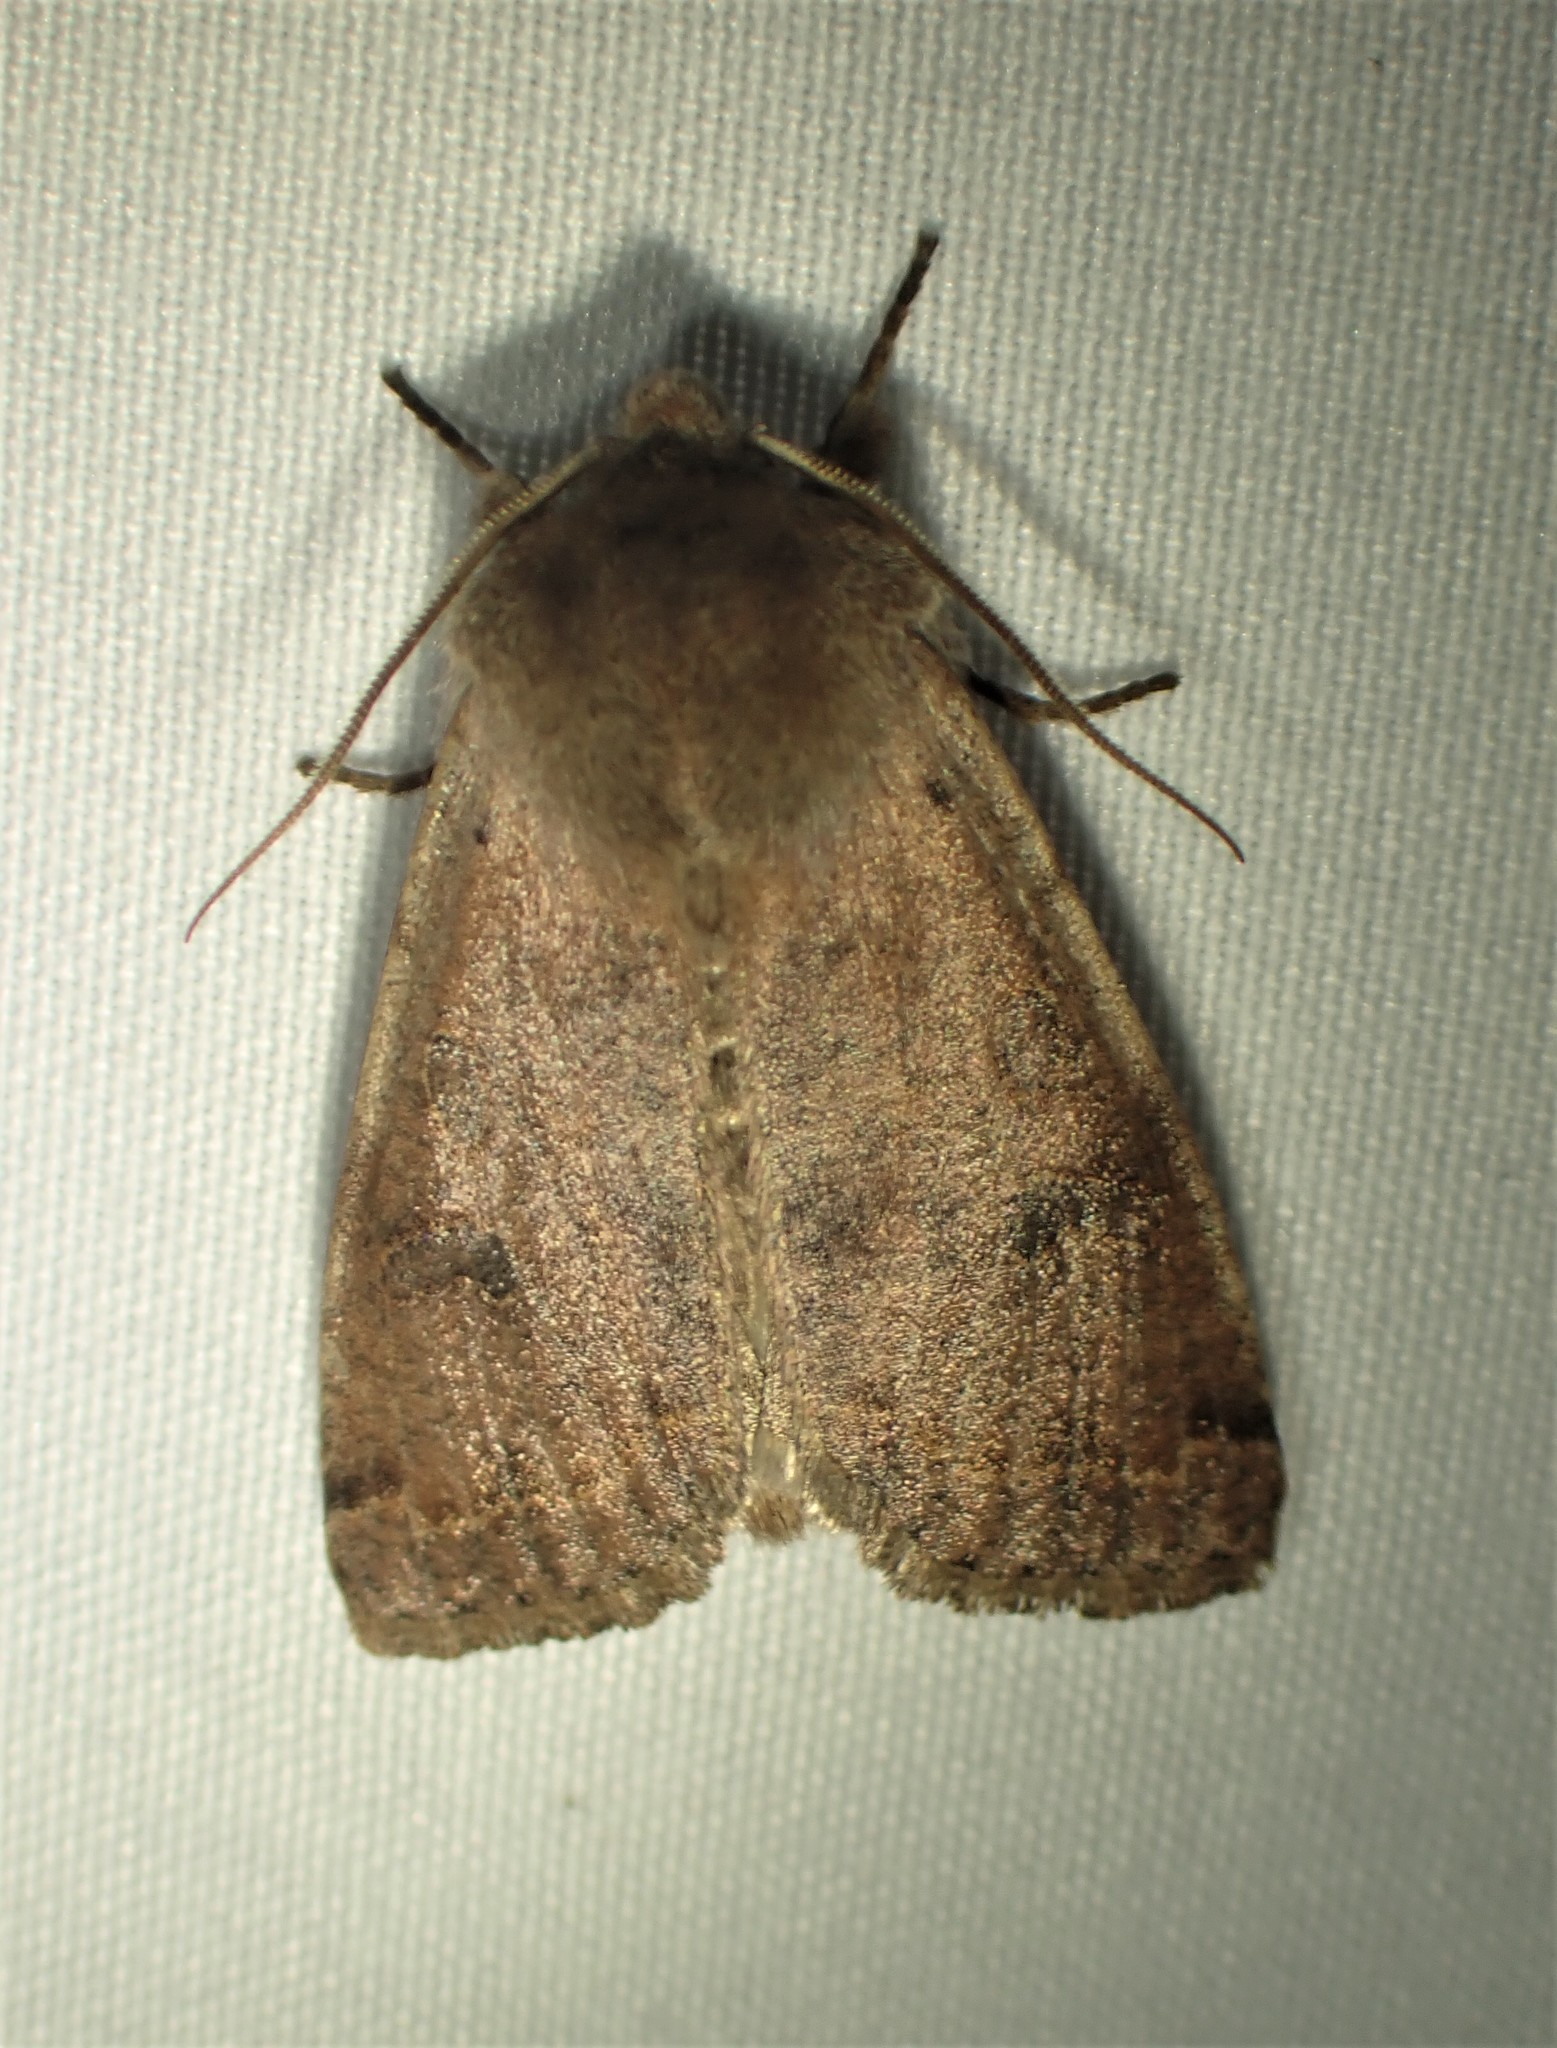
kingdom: Animalia
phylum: Arthropoda
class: Insecta
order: Lepidoptera
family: Noctuidae
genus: Orthosia
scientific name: Orthosia hibisci
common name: Green fruitworm
